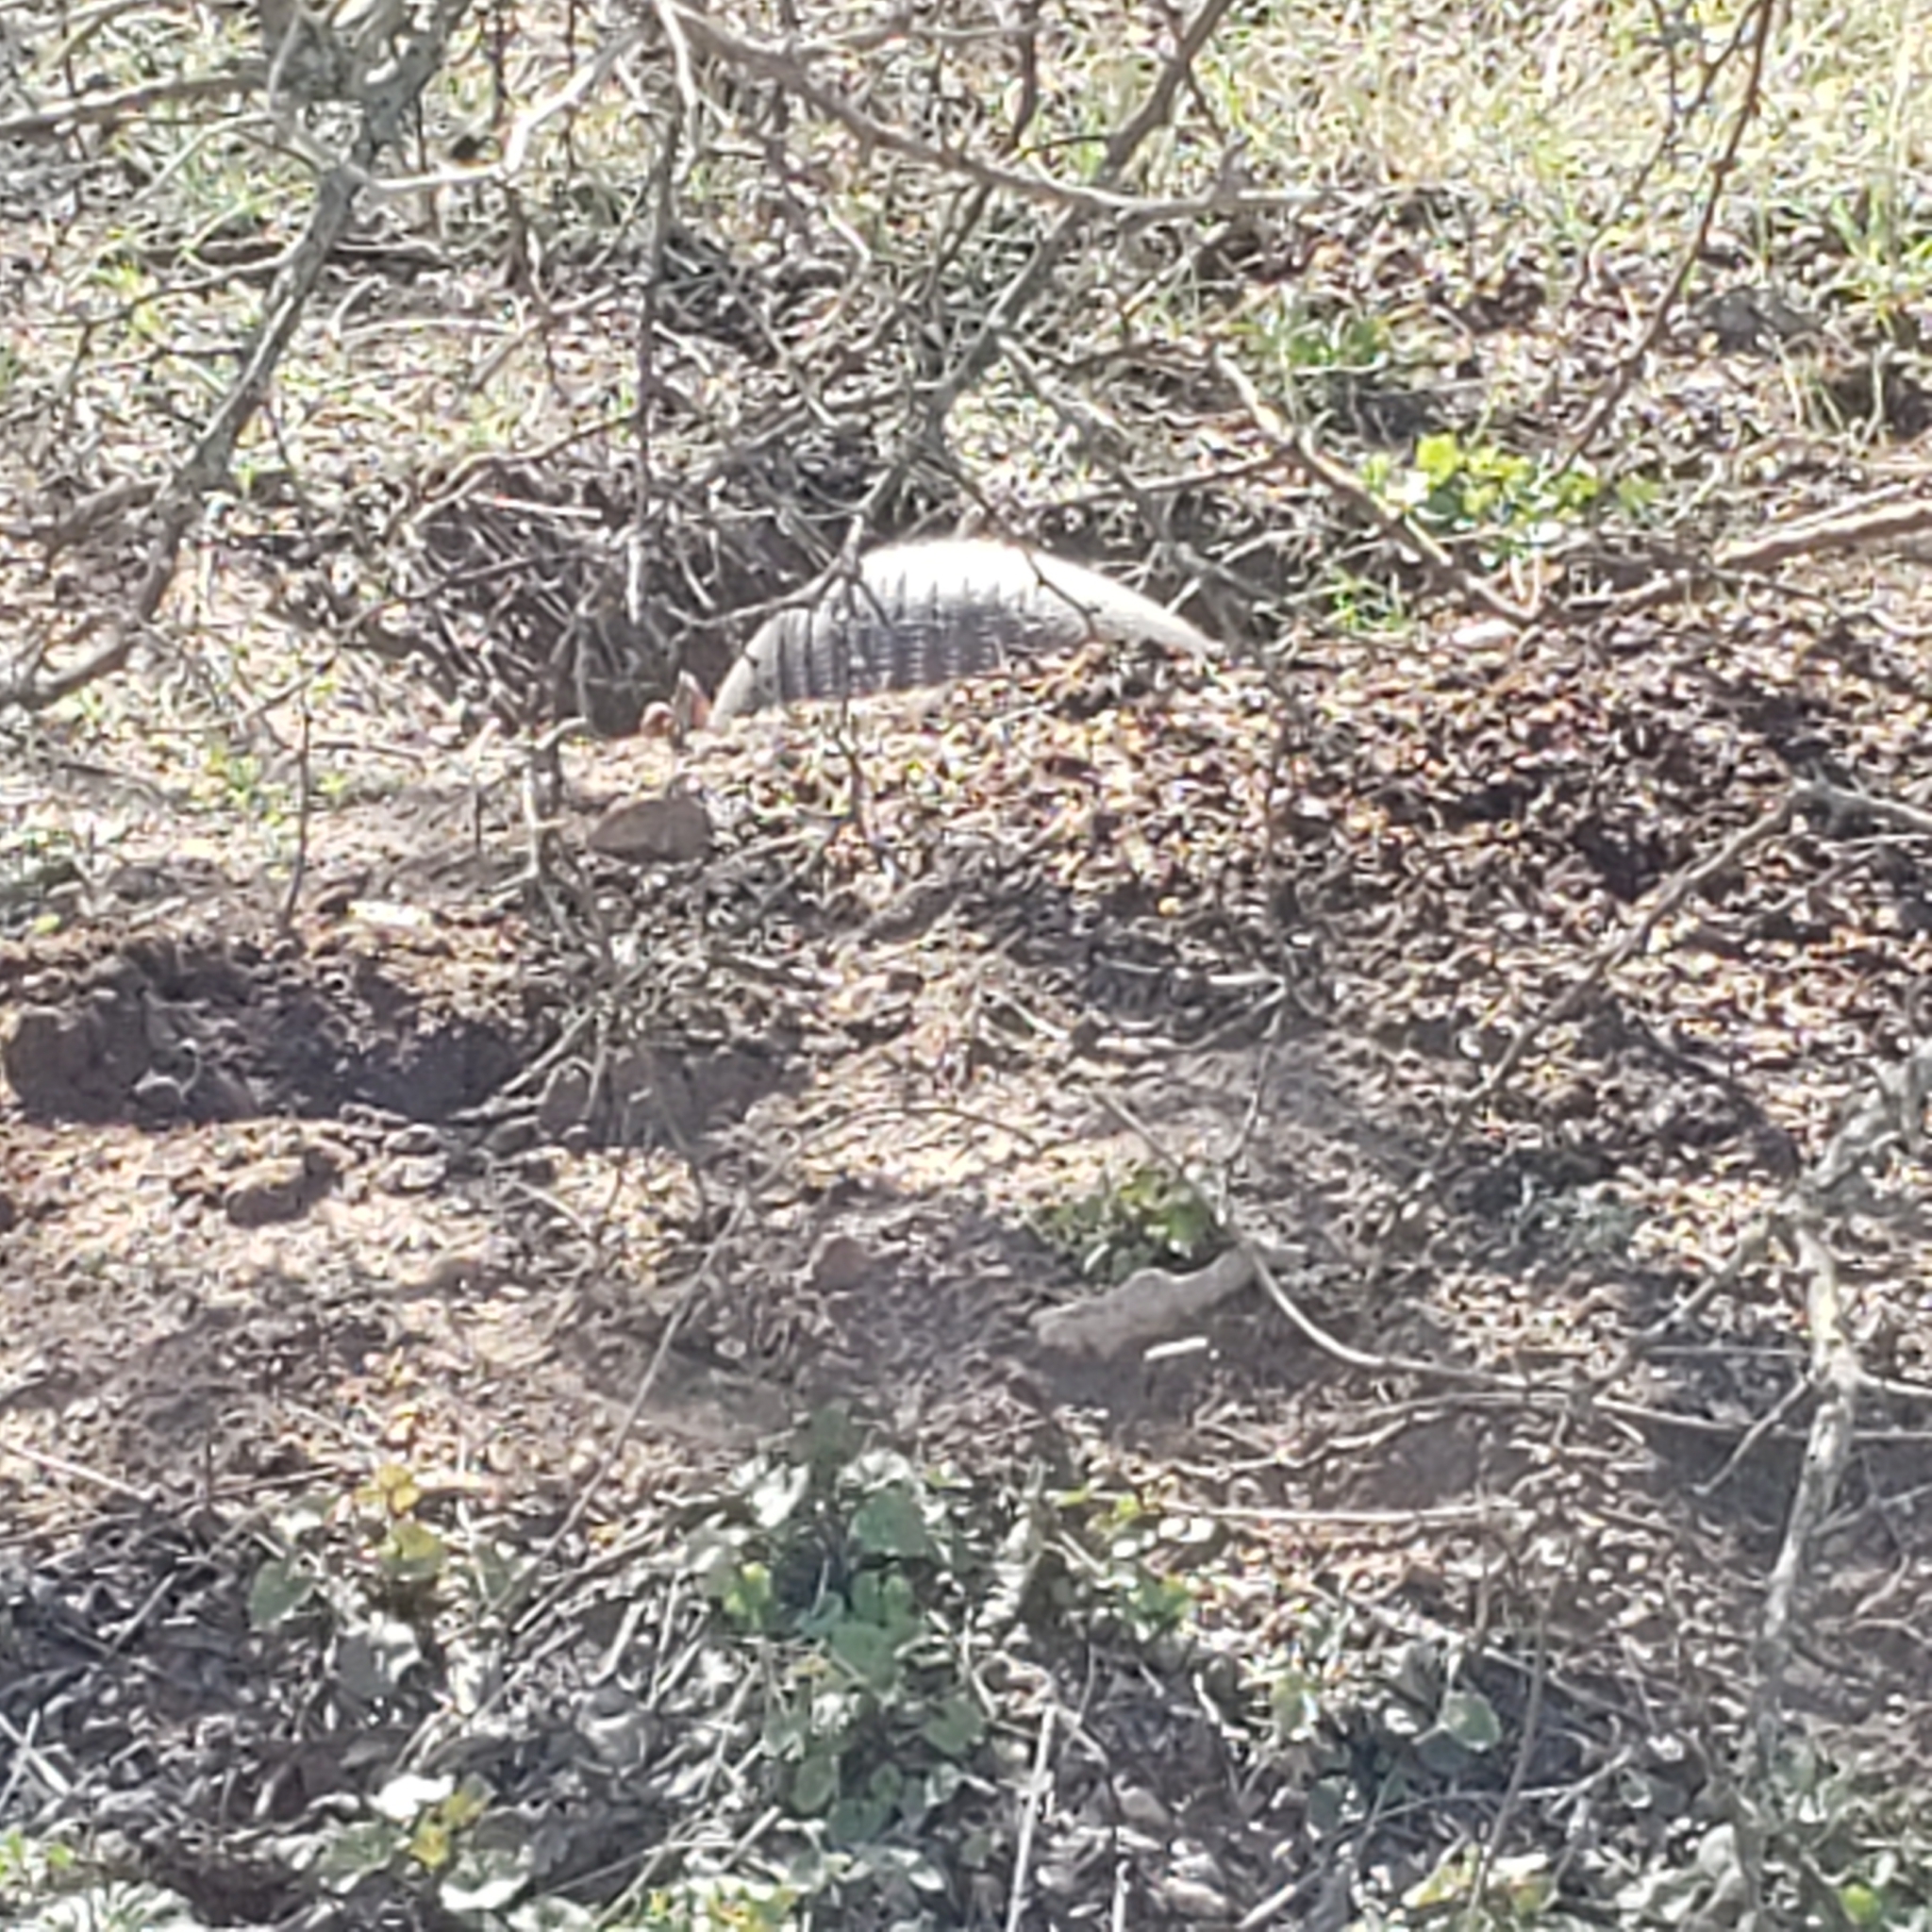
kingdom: Animalia
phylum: Chordata
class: Mammalia
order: Cingulata
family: Dasypodidae
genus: Dasypus
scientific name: Dasypus novemcinctus
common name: Nine-banded armadillo
